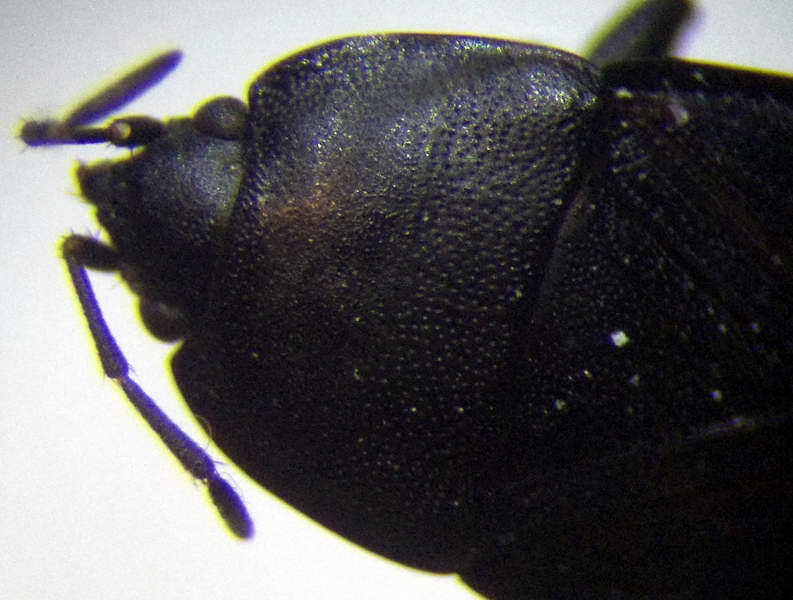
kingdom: Animalia
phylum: Arthropoda
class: Insecta
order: Hemiptera
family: Rhyparochromidae
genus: Aellopus
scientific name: Aellopus atratus
